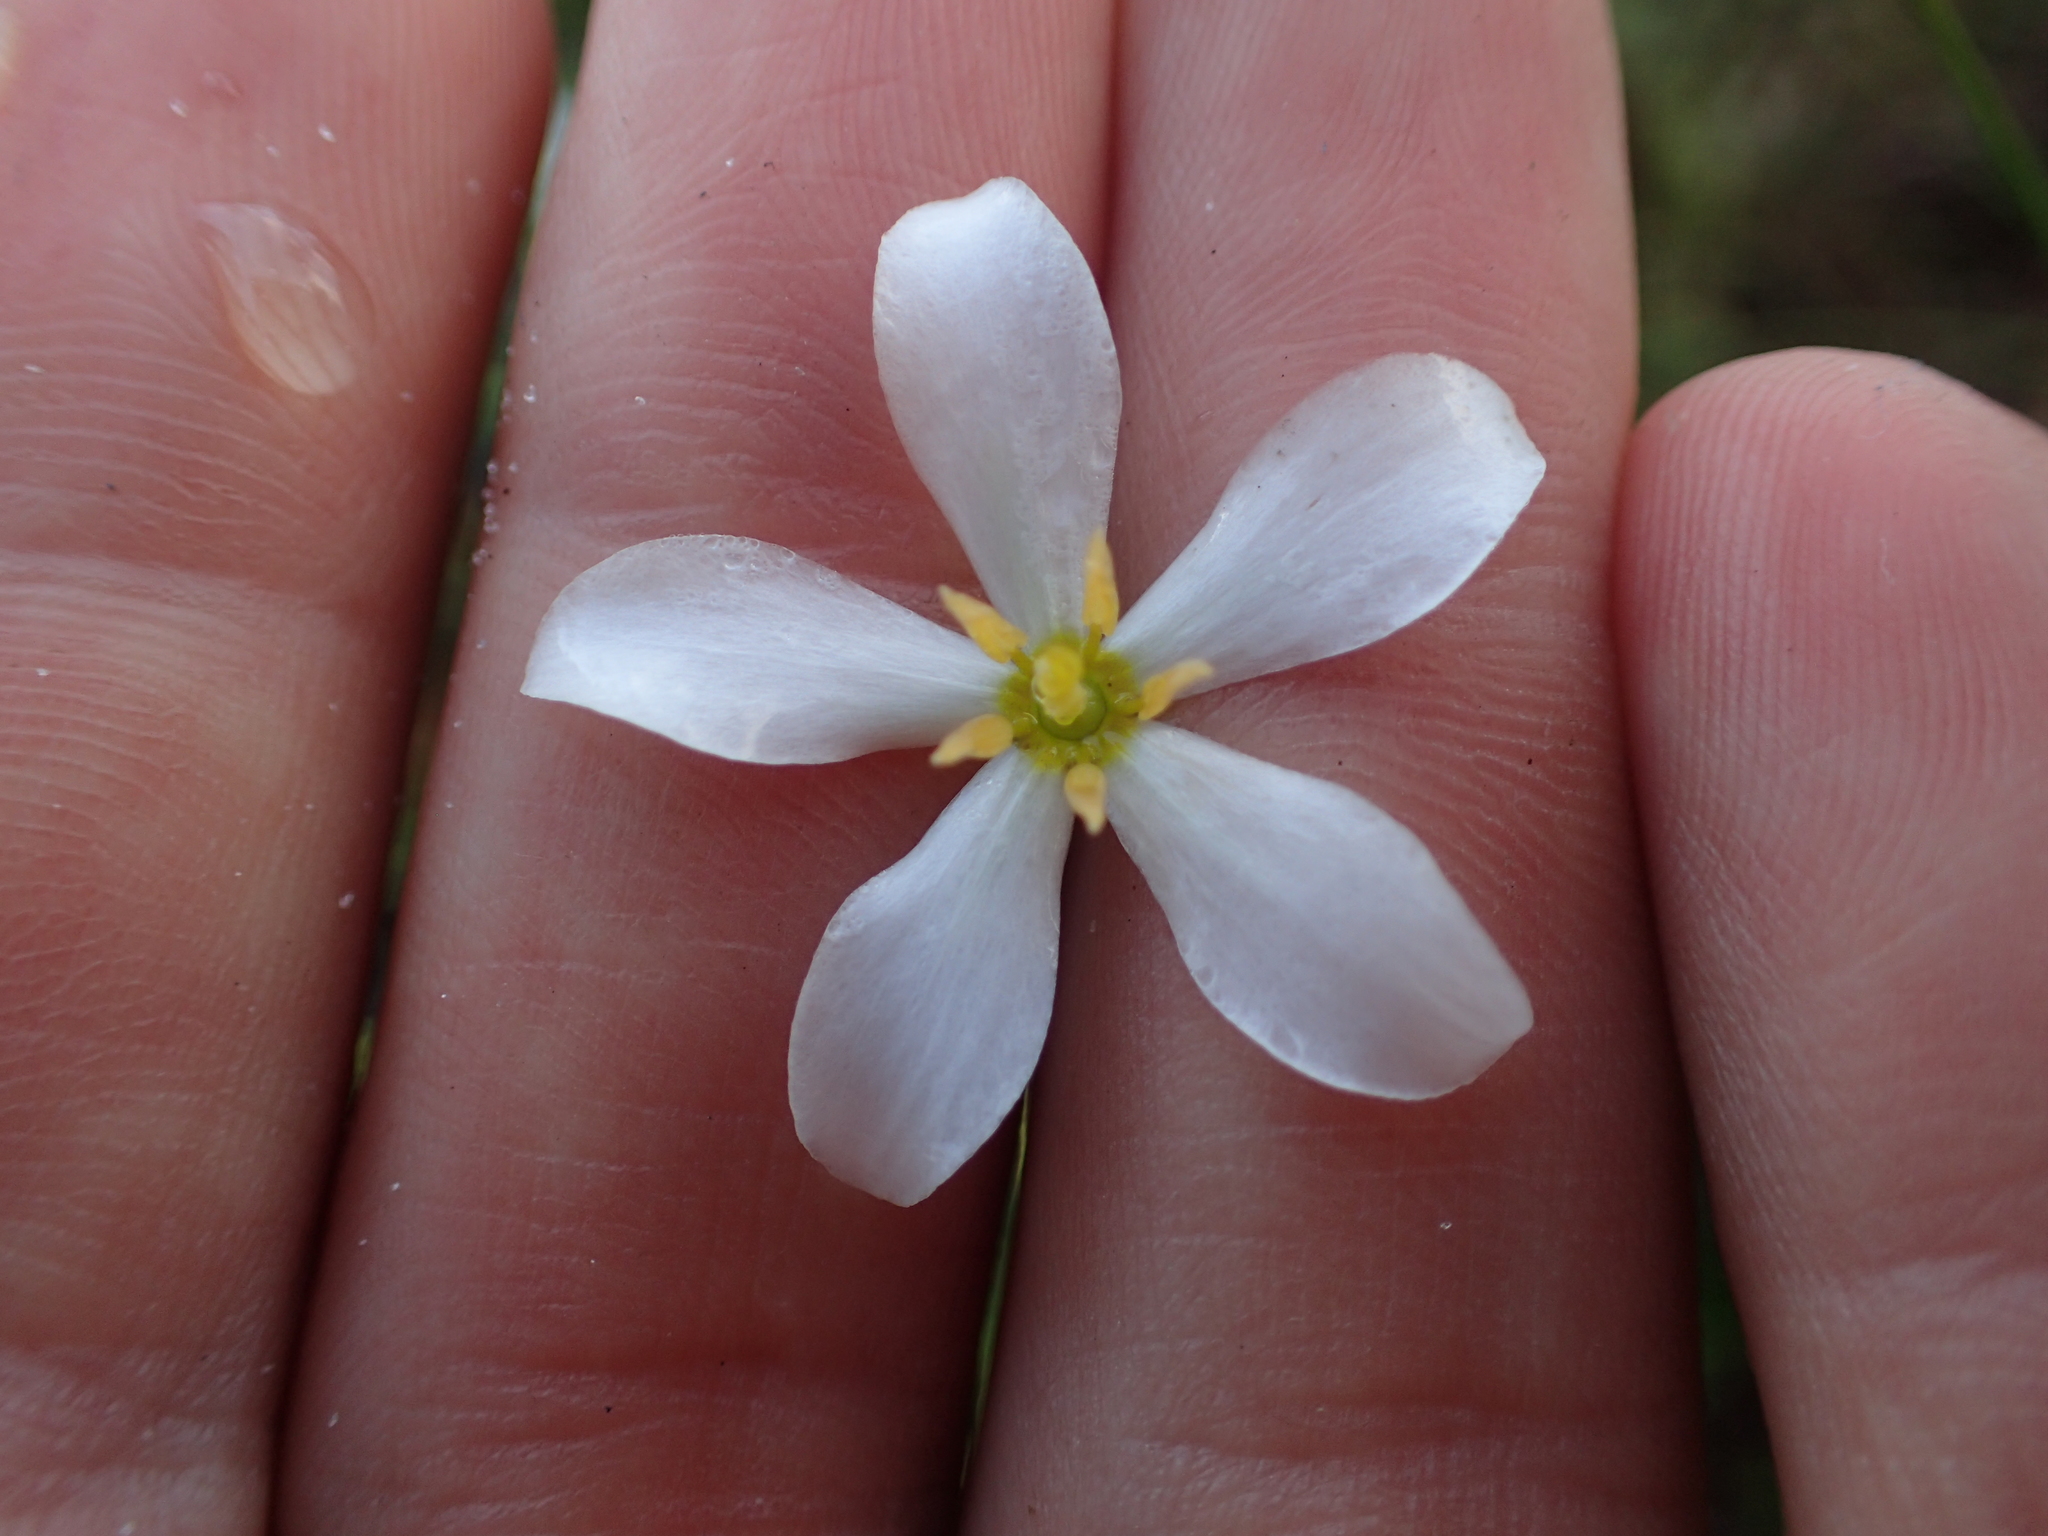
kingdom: Plantae
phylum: Tracheophyta
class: Magnoliopsida
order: Gentianales
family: Gentianaceae
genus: Sabatia
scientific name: Sabatia brevifolia
